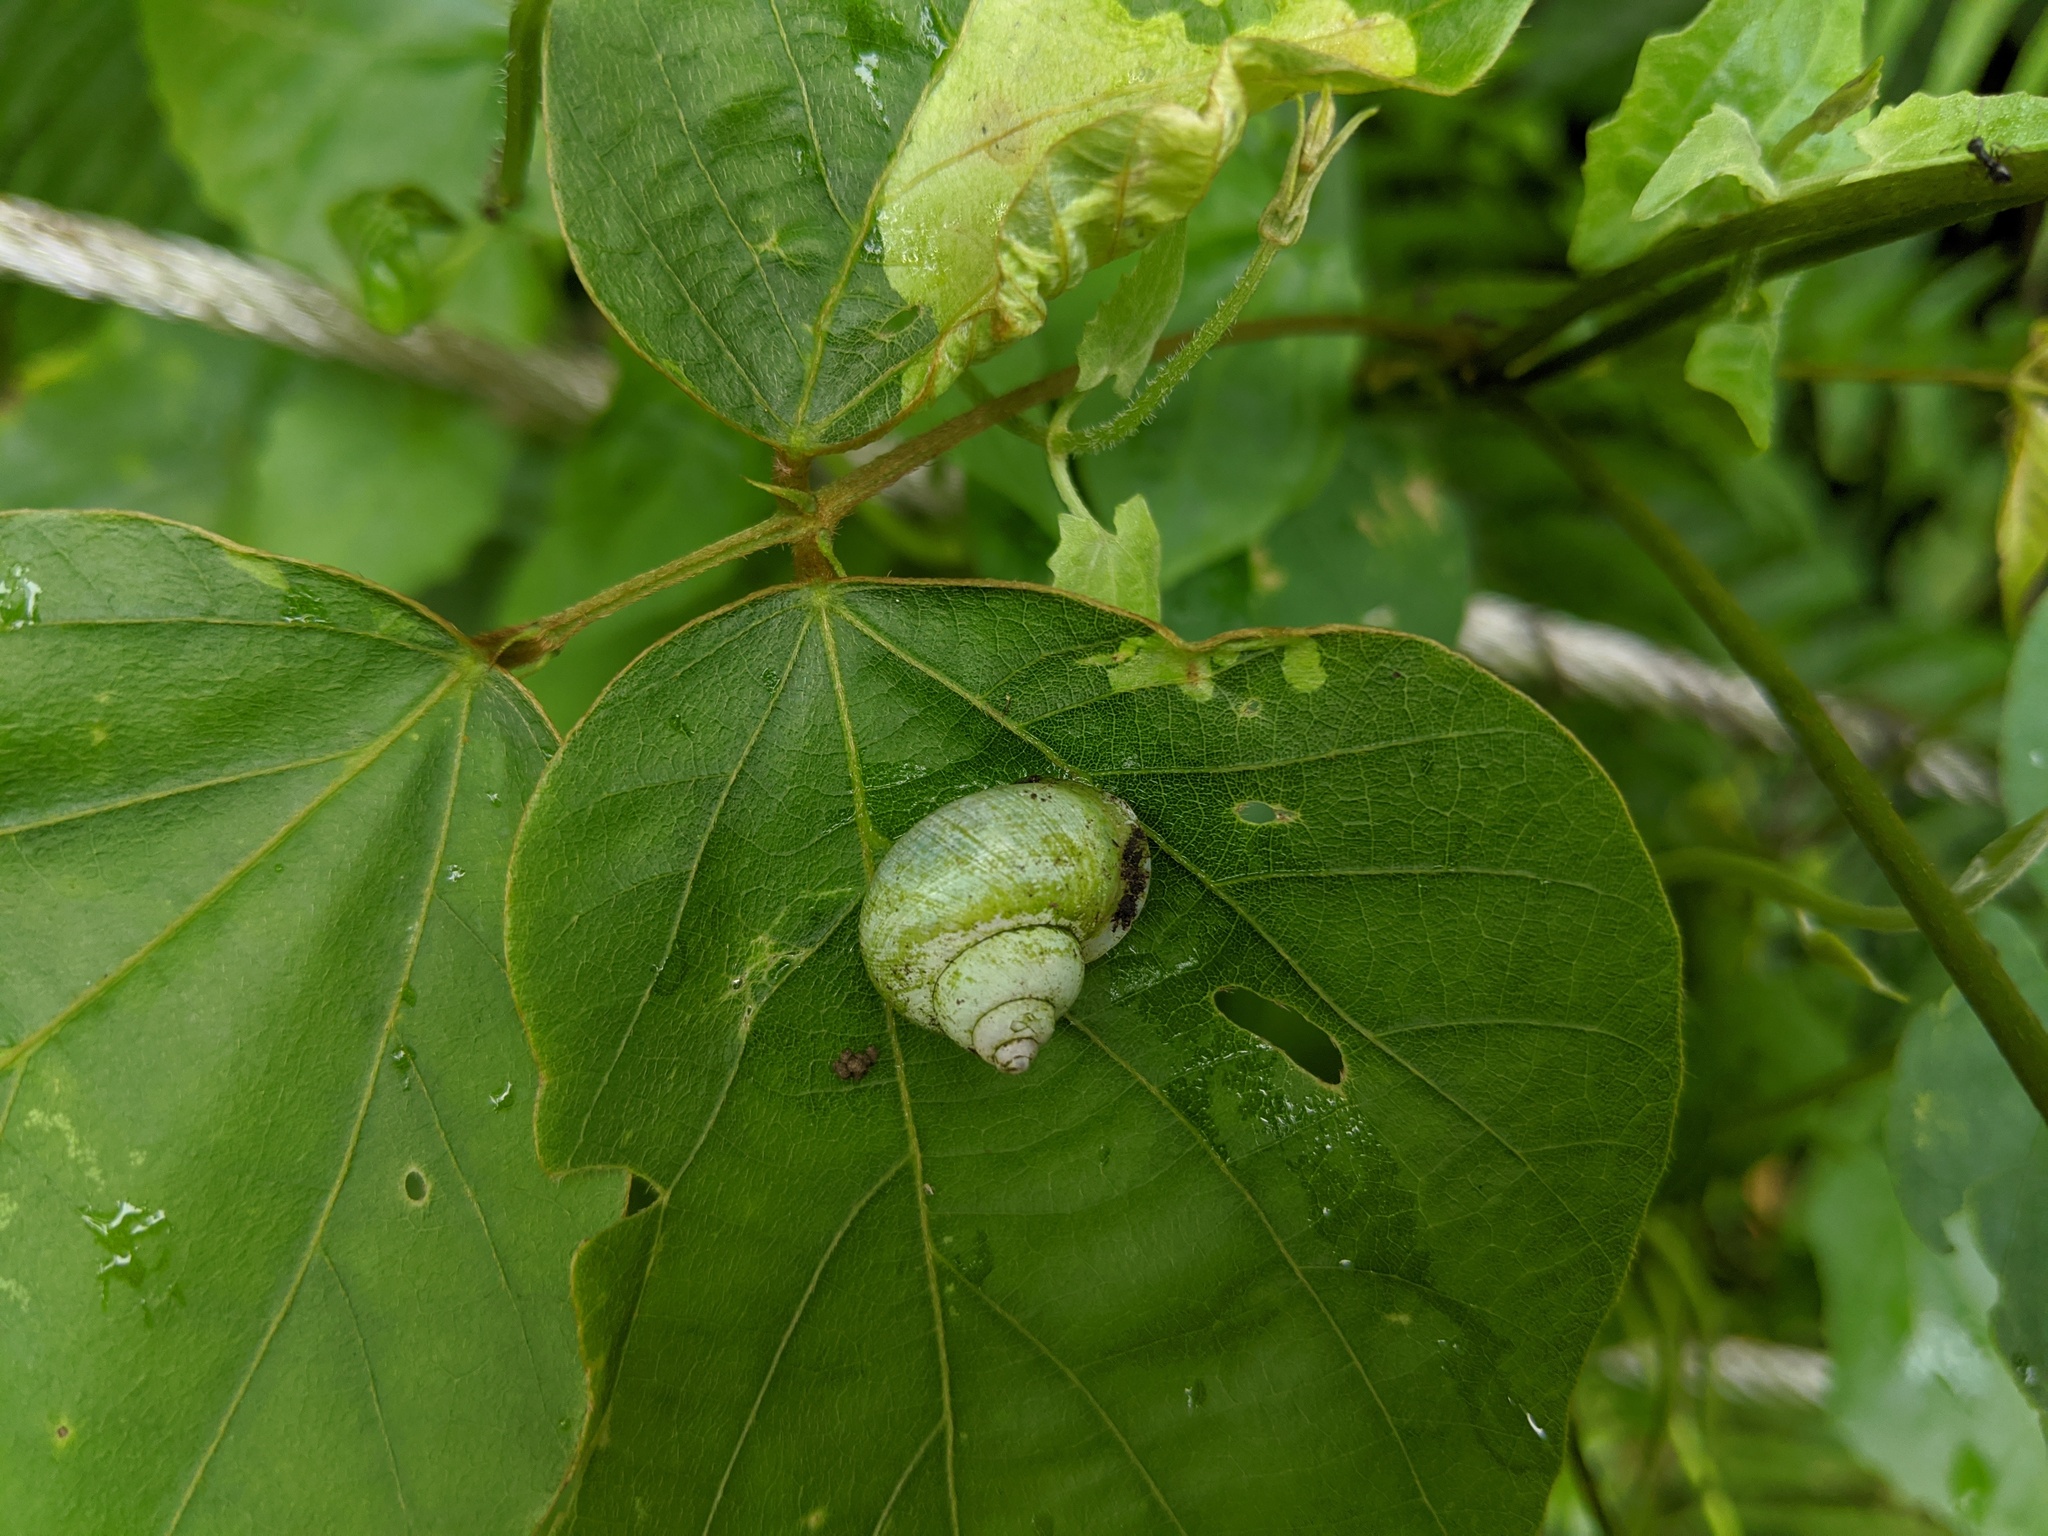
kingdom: Animalia
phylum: Mollusca
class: Gastropoda
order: Architaenioglossa
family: Cyclophoridae
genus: Leptopoma
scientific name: Leptopoma nitidum
